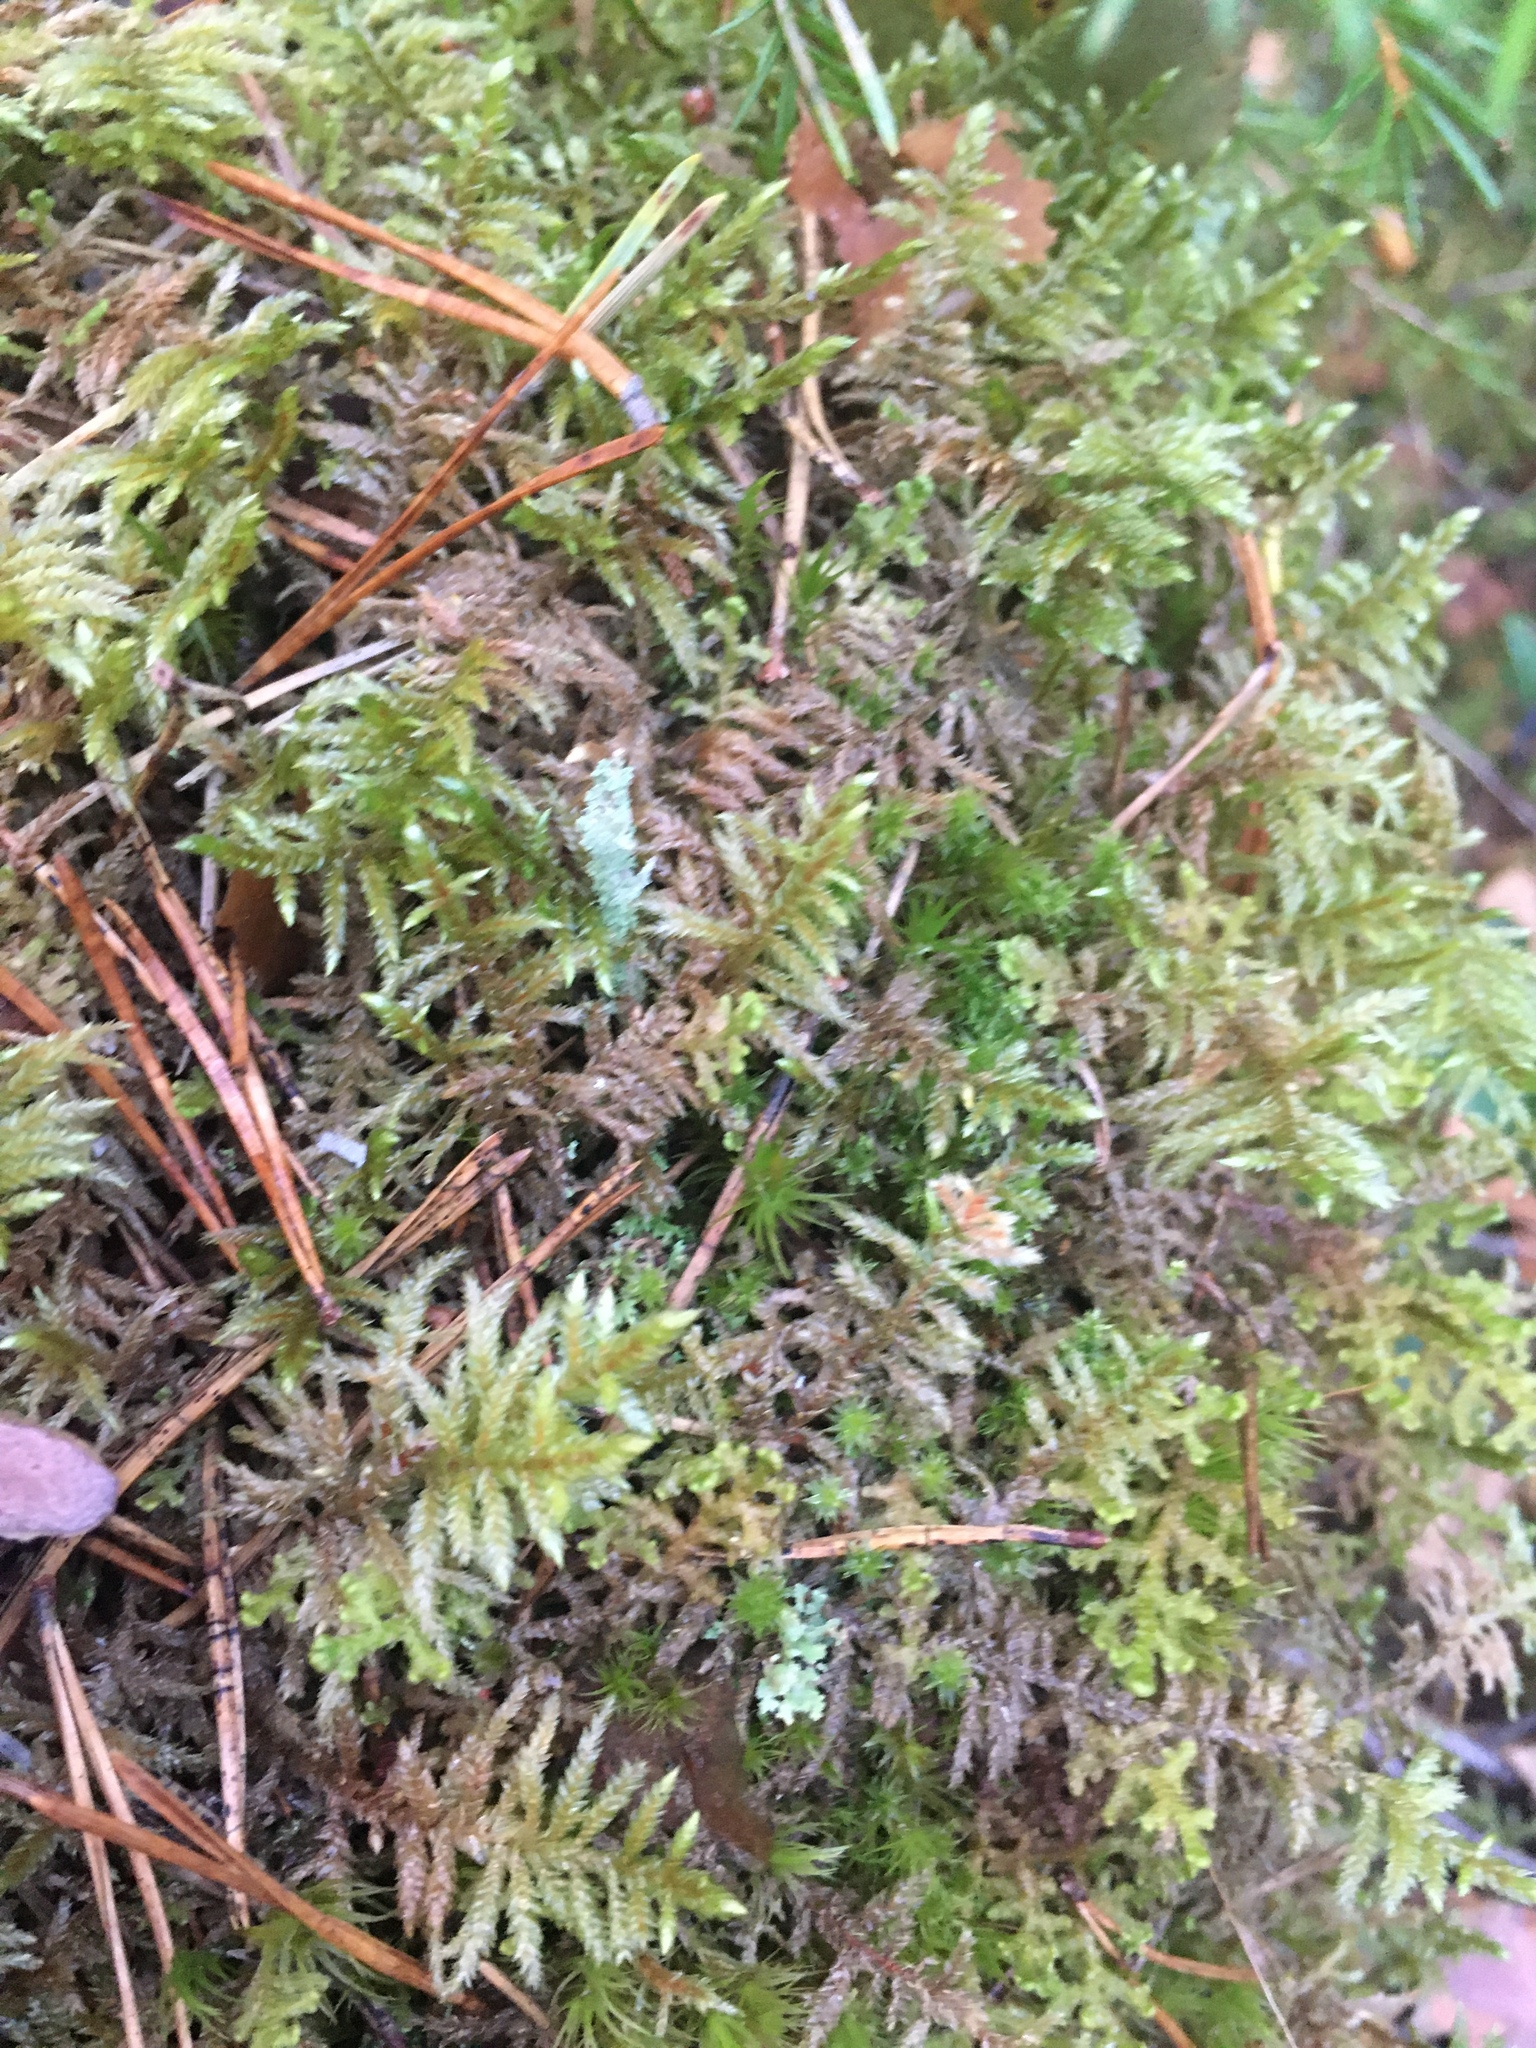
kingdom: Plantae
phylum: Bryophyta
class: Bryopsida
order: Hypnales
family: Hylocomiaceae
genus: Pleurozium
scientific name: Pleurozium schreberi
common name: Red-stemmed feather moss
